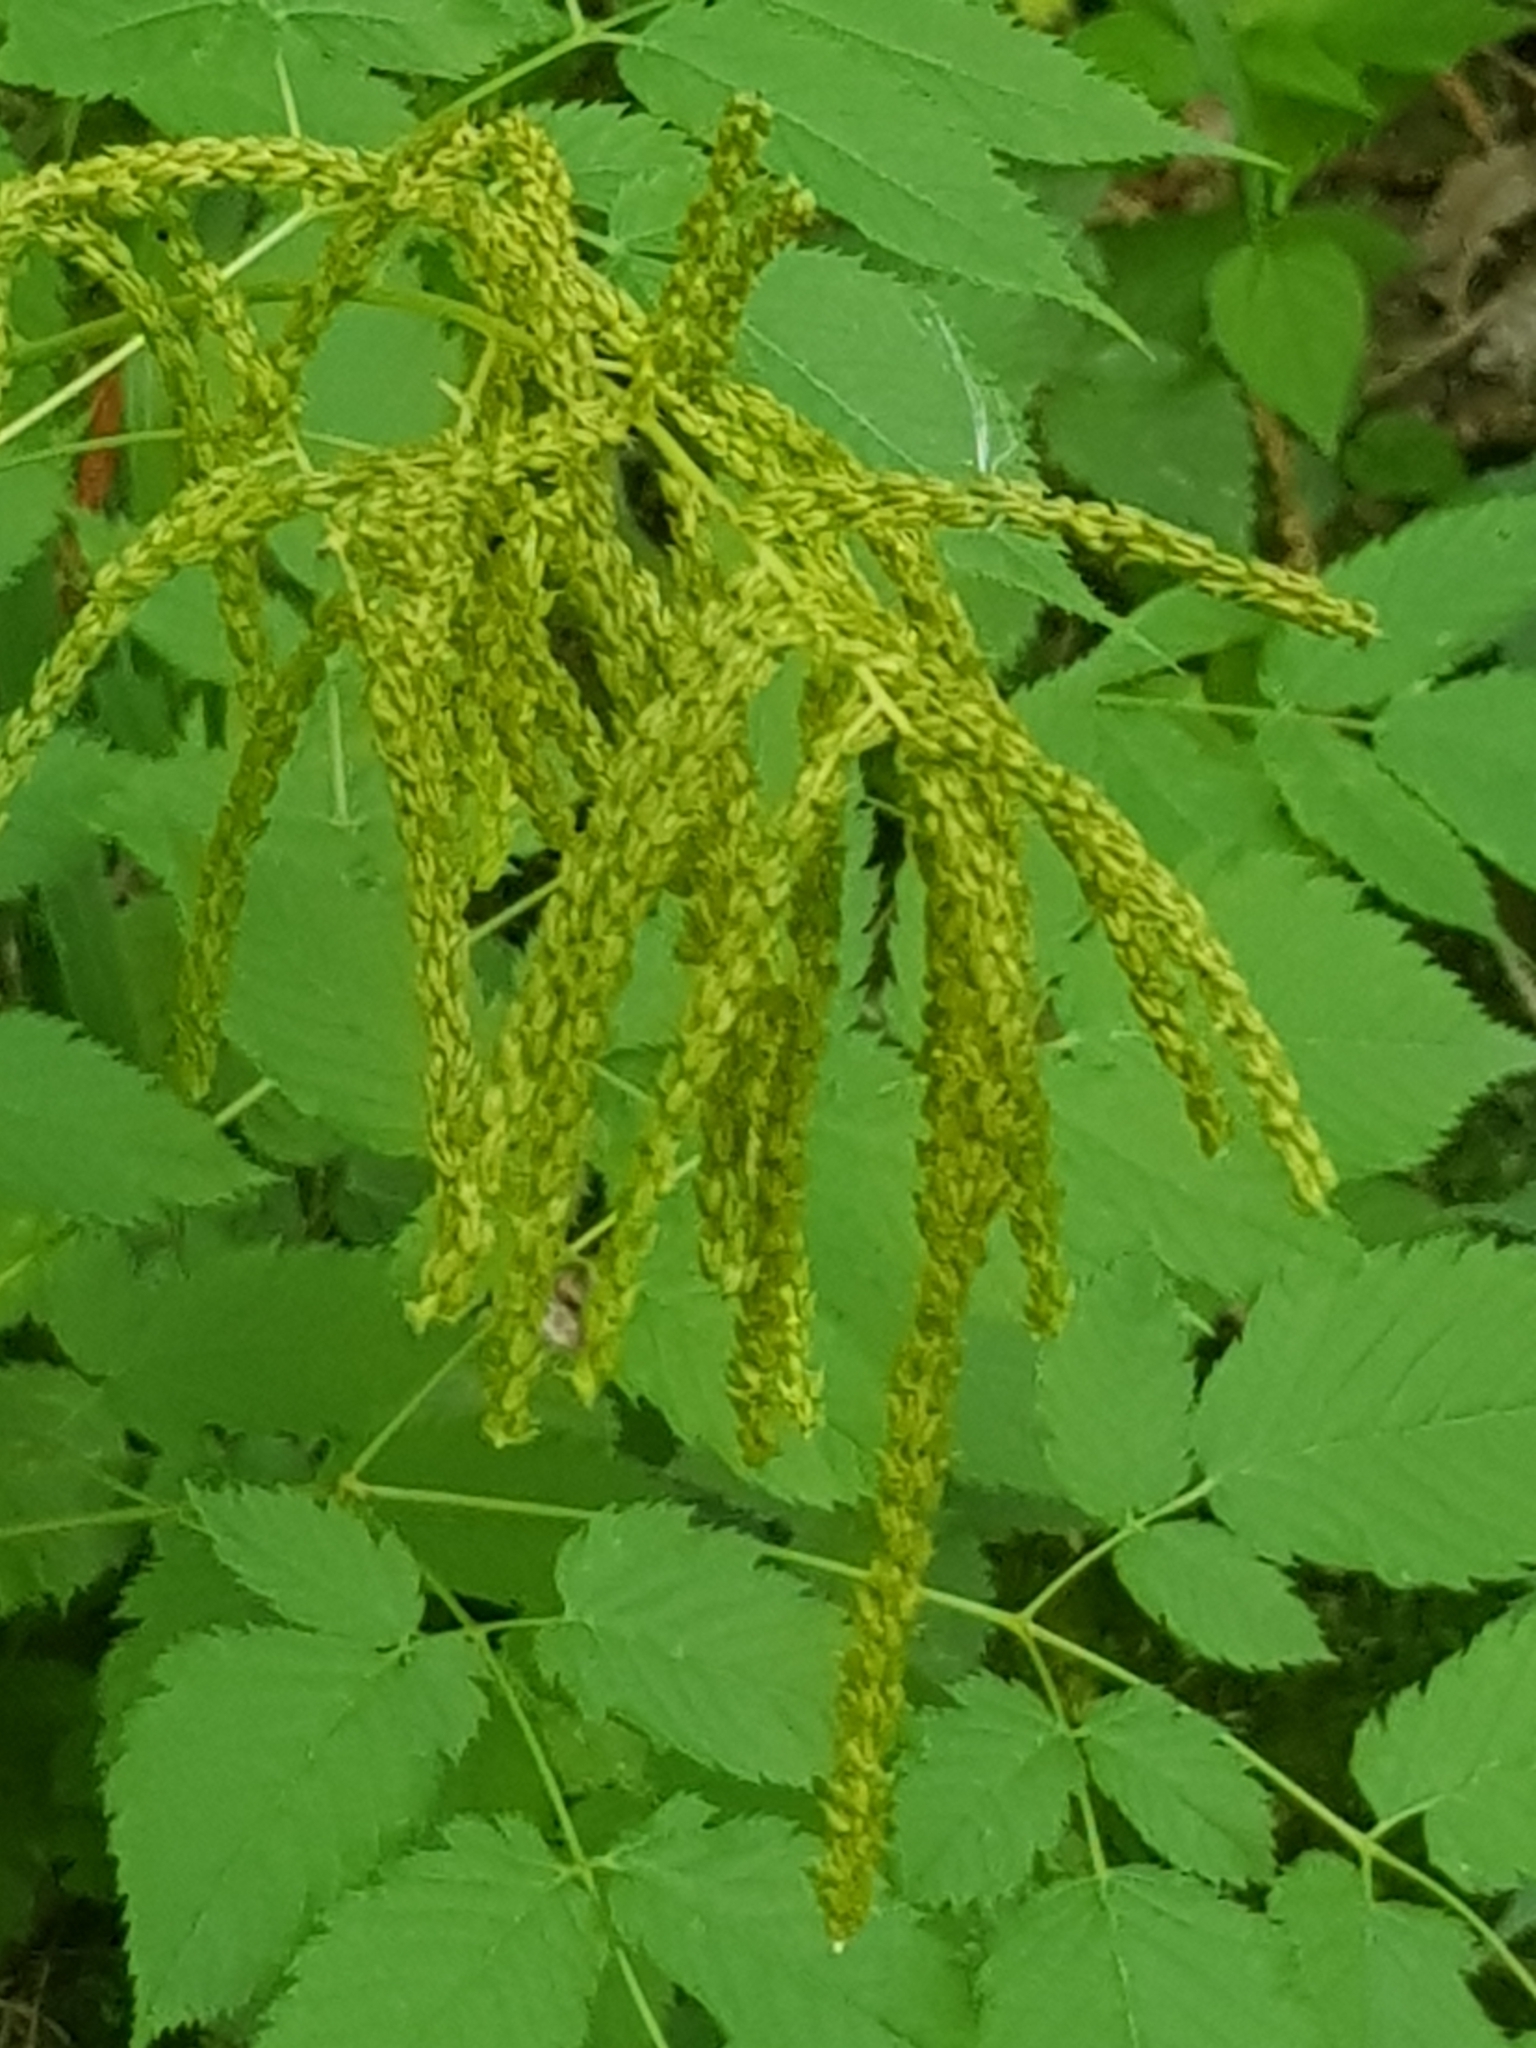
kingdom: Plantae
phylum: Tracheophyta
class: Magnoliopsida
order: Rosales
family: Rosaceae
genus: Aruncus
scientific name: Aruncus dioicus
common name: Buck's-beard
